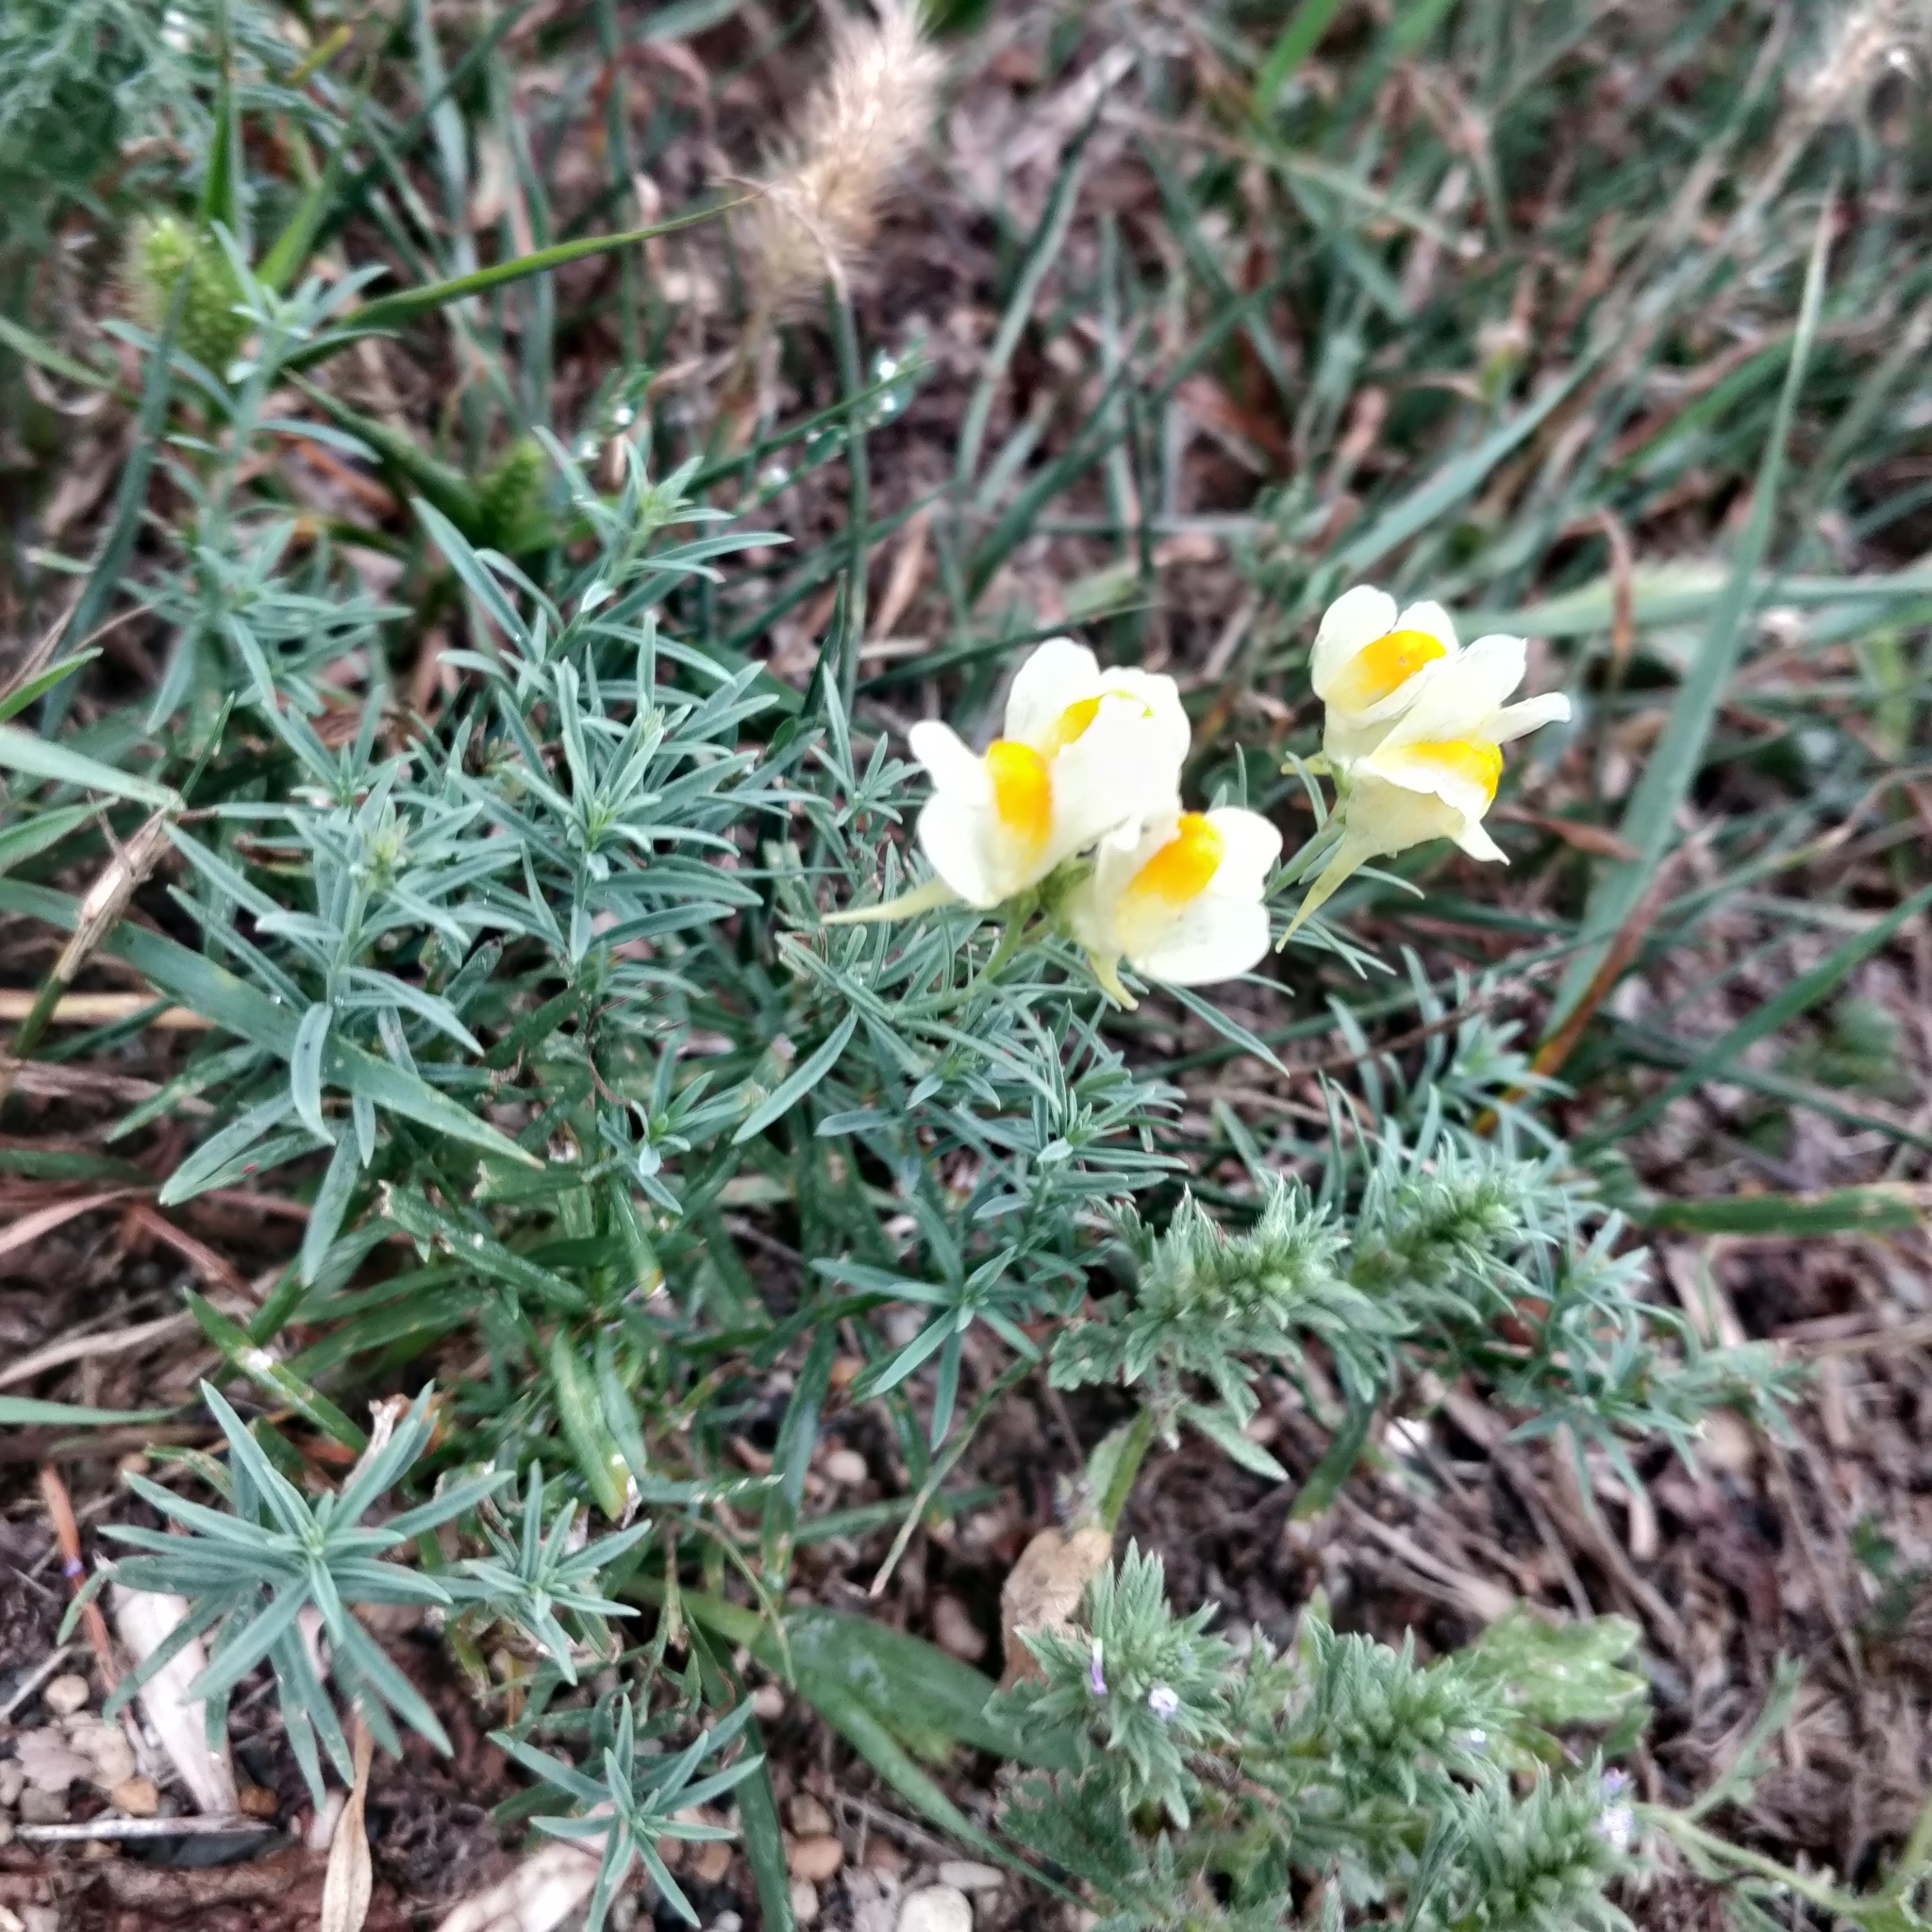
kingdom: Plantae
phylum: Tracheophyta
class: Magnoliopsida
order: Lamiales
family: Plantaginaceae
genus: Linaria
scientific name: Linaria vulgaris
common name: Butter and eggs
